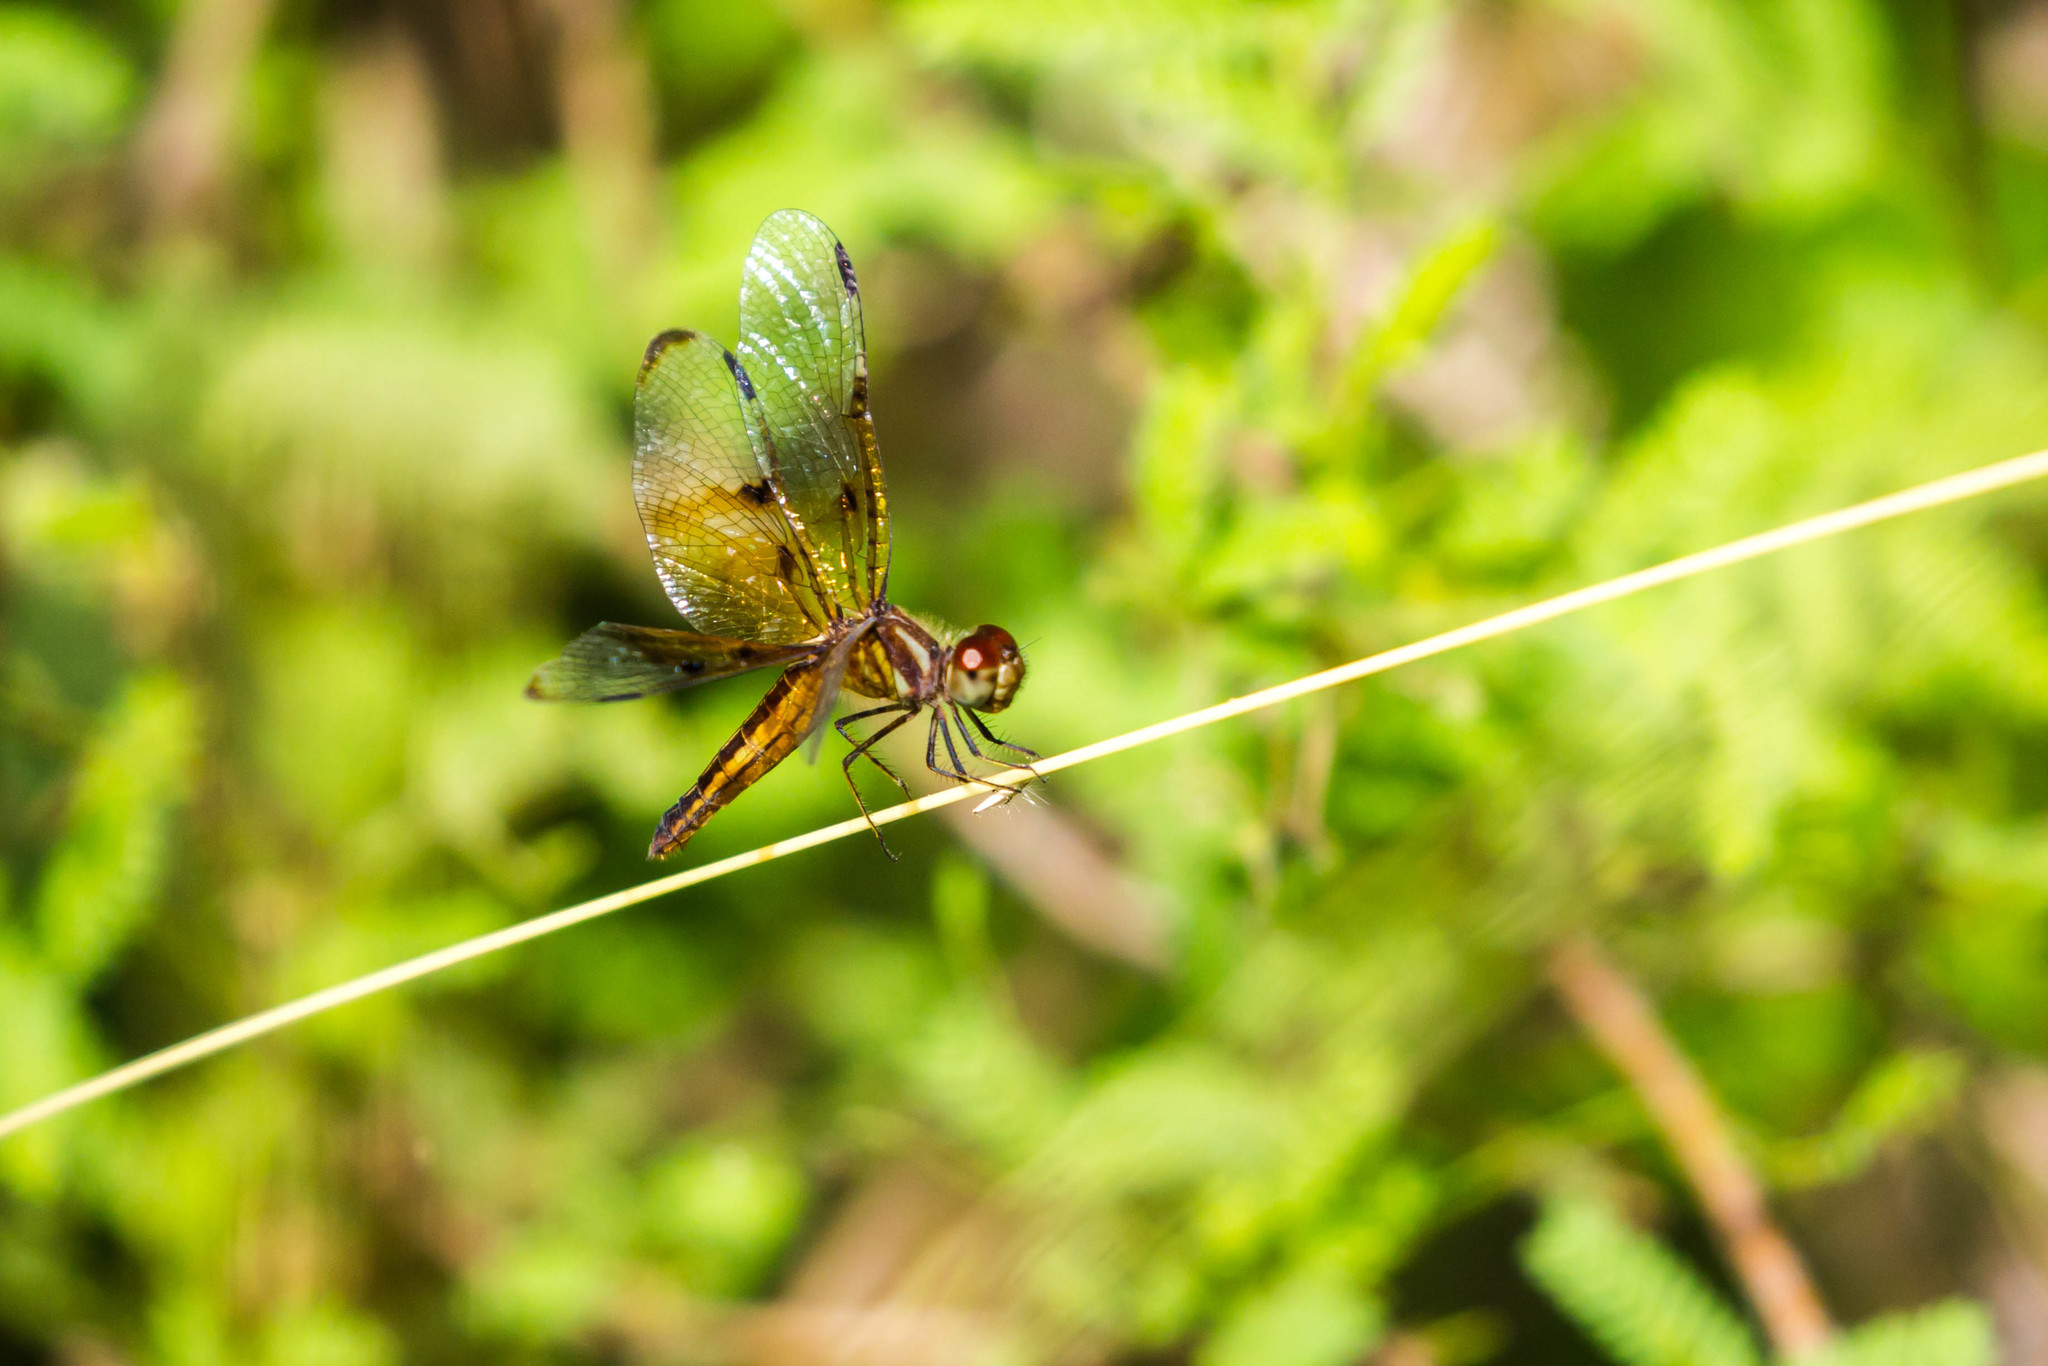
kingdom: Animalia
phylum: Arthropoda
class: Insecta
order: Odonata
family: Libellulidae
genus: Perithemis
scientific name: Perithemis domitia
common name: Slough amberwing
